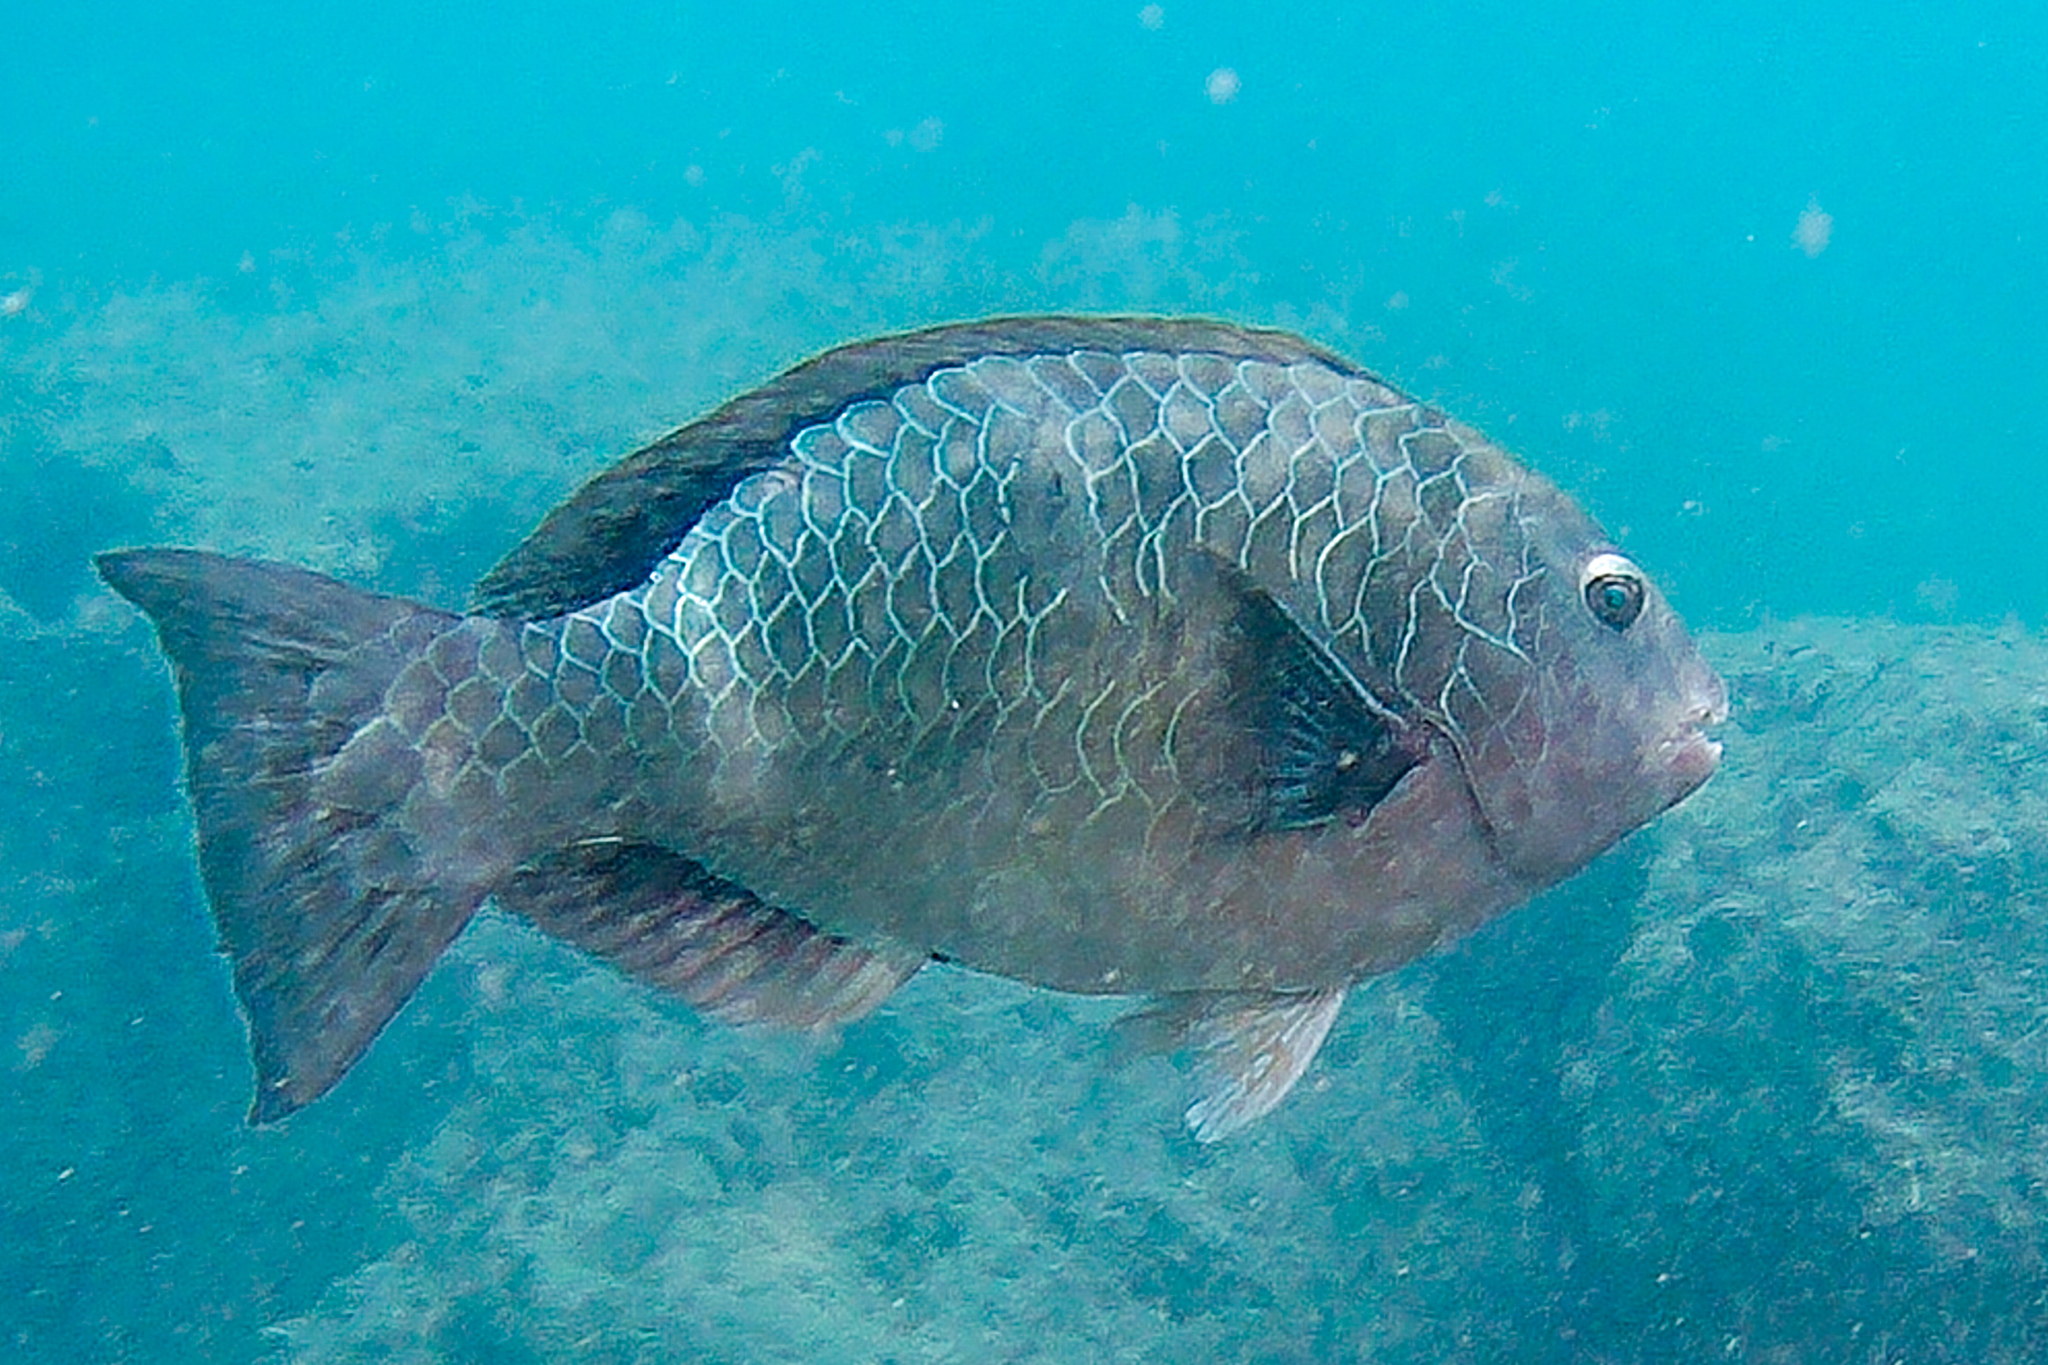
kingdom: Animalia
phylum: Chordata
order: Perciformes
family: Scaridae
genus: Calotomus
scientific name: Calotomus carolinus
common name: Bucktooth
